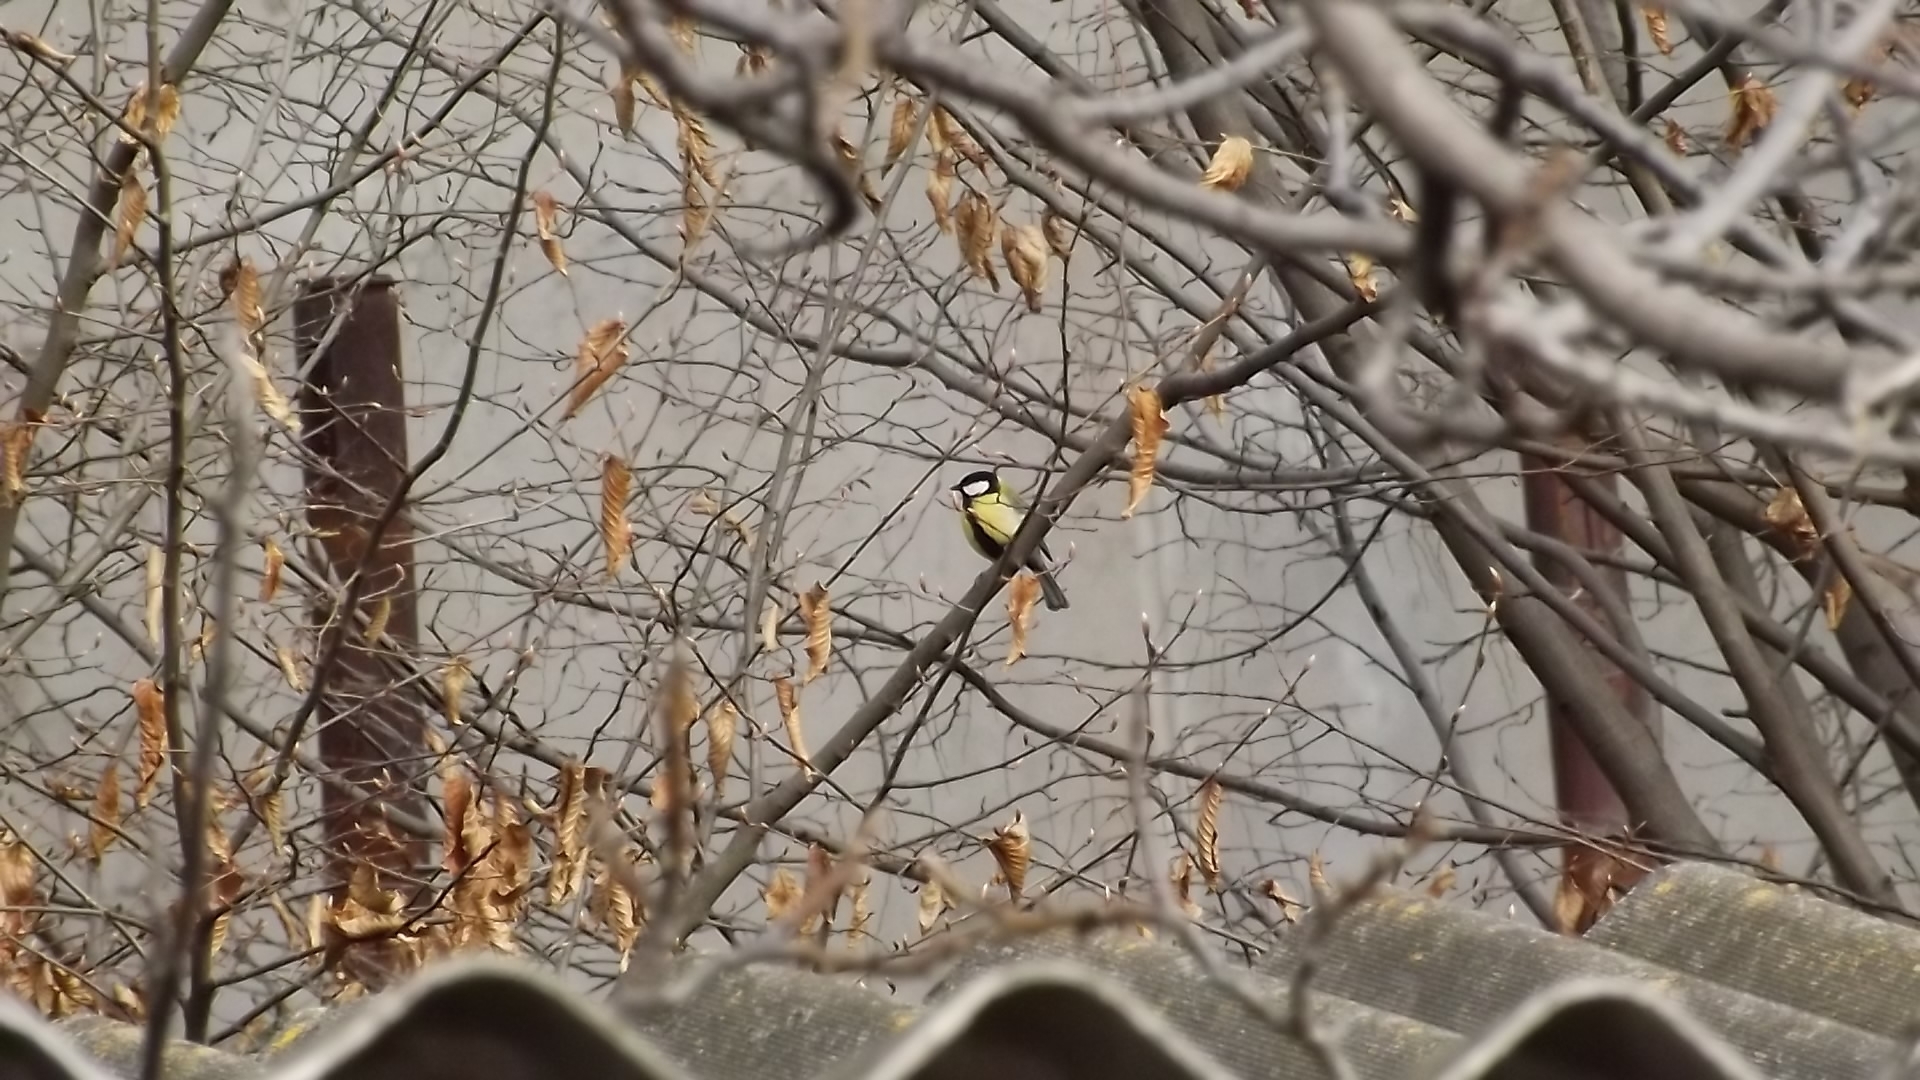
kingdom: Animalia
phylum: Chordata
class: Aves
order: Passeriformes
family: Paridae
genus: Parus
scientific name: Parus major
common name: Great tit
